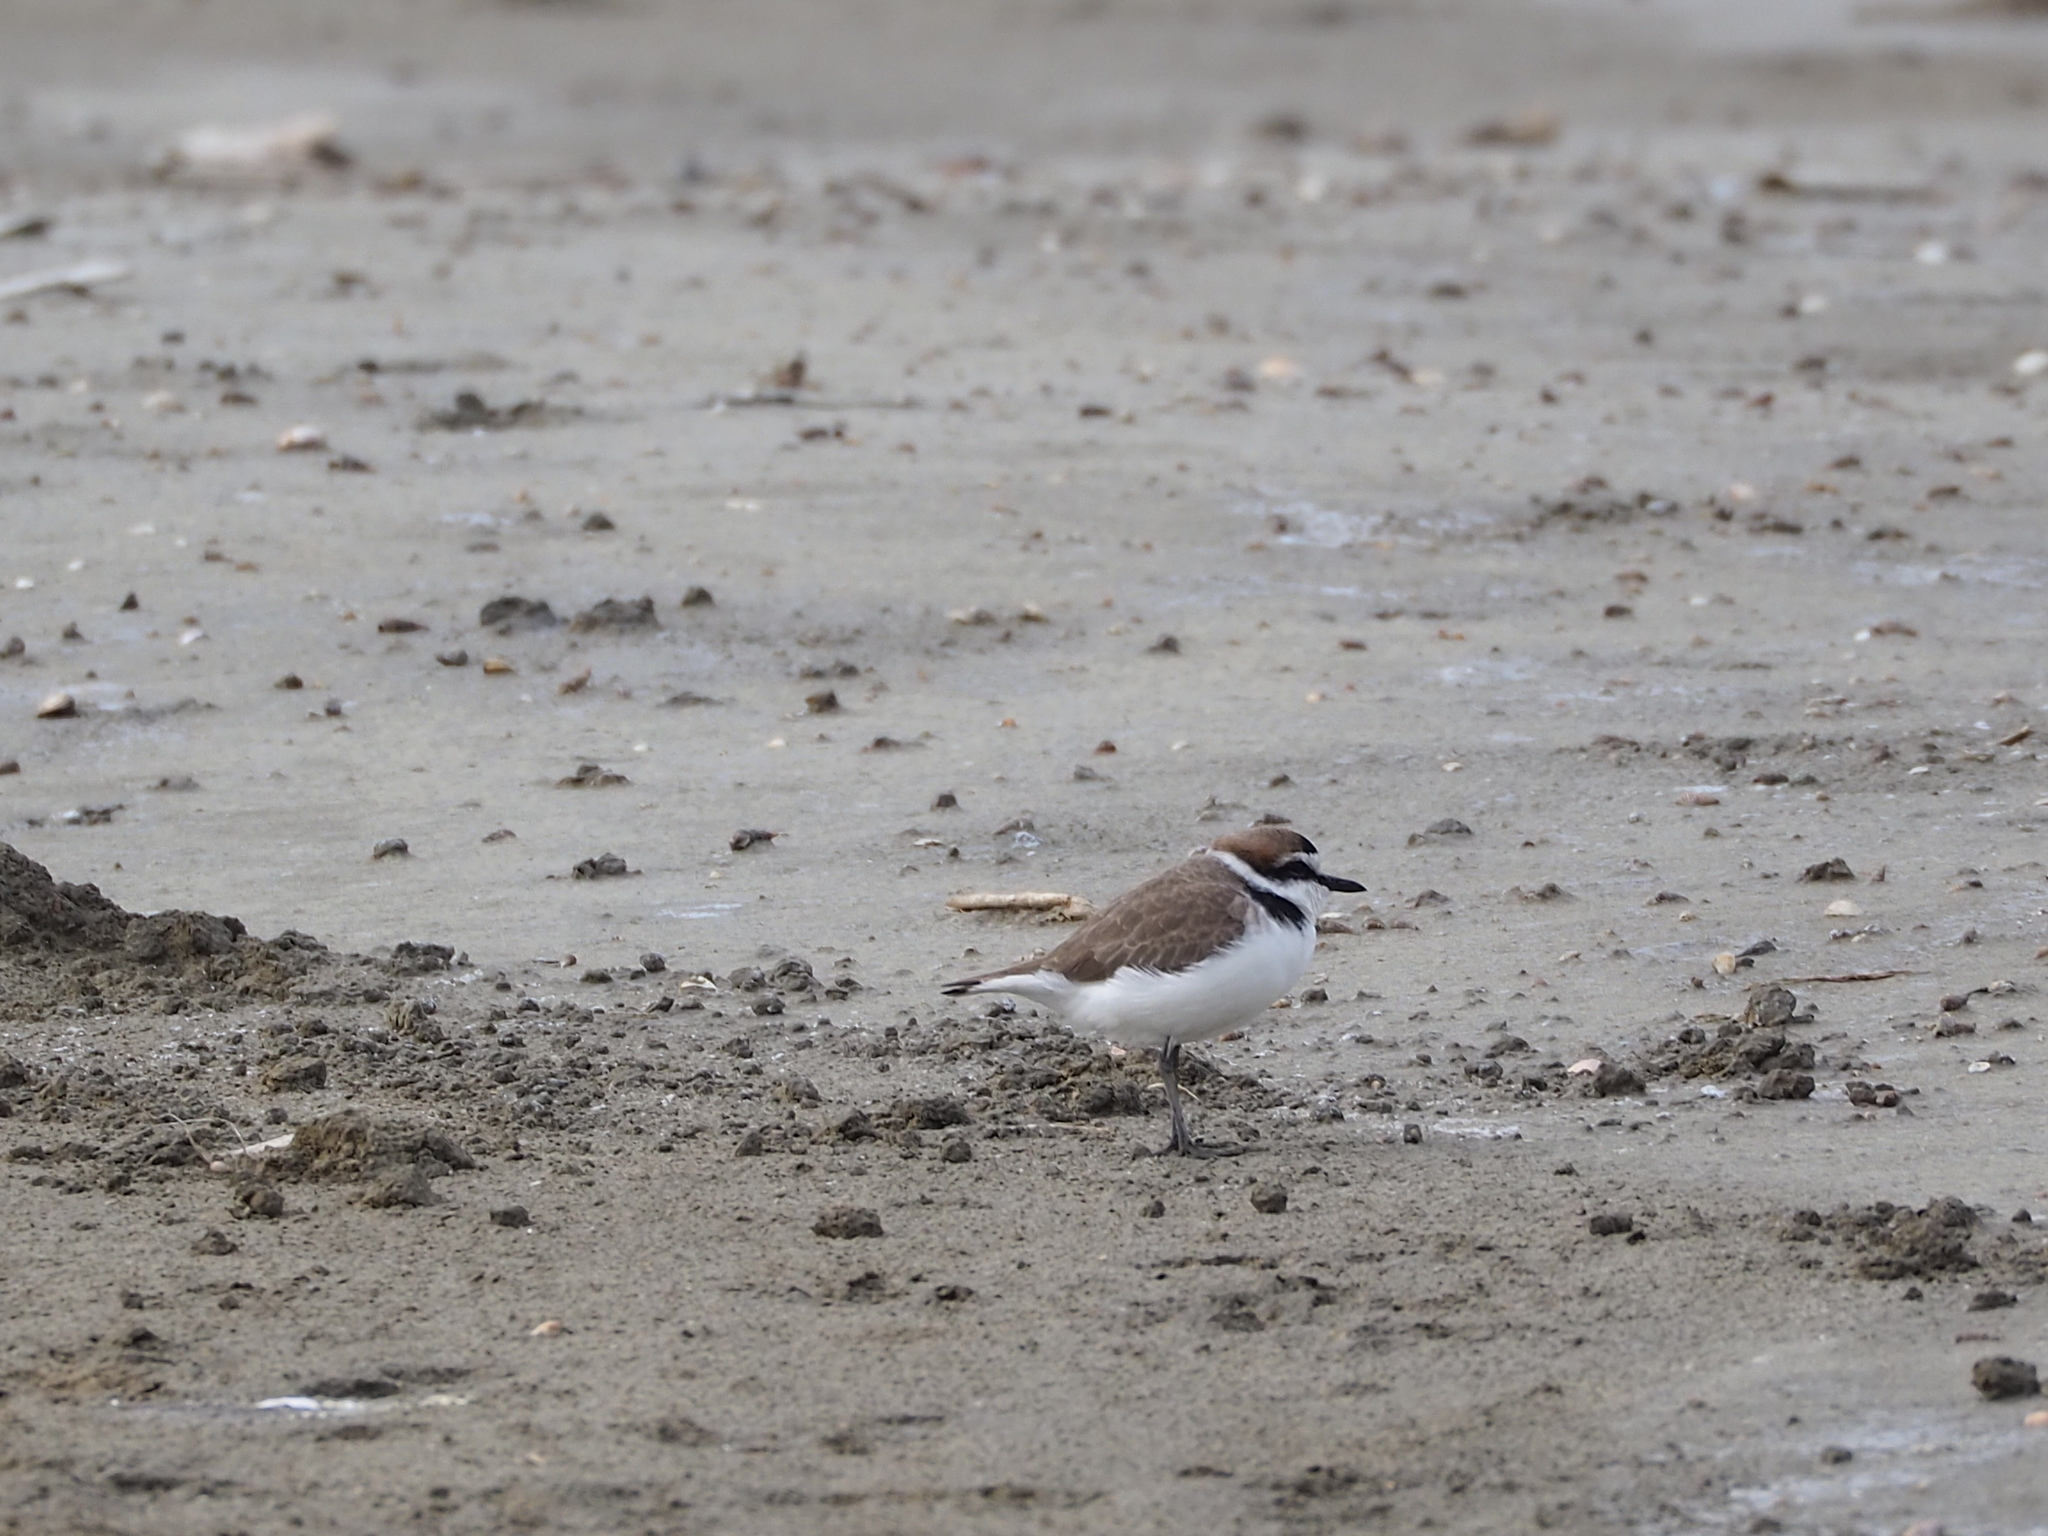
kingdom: Animalia
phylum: Chordata
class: Aves
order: Charadriiformes
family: Charadriidae
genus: Charadrius
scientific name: Charadrius alexandrinus
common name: Kentish plover
